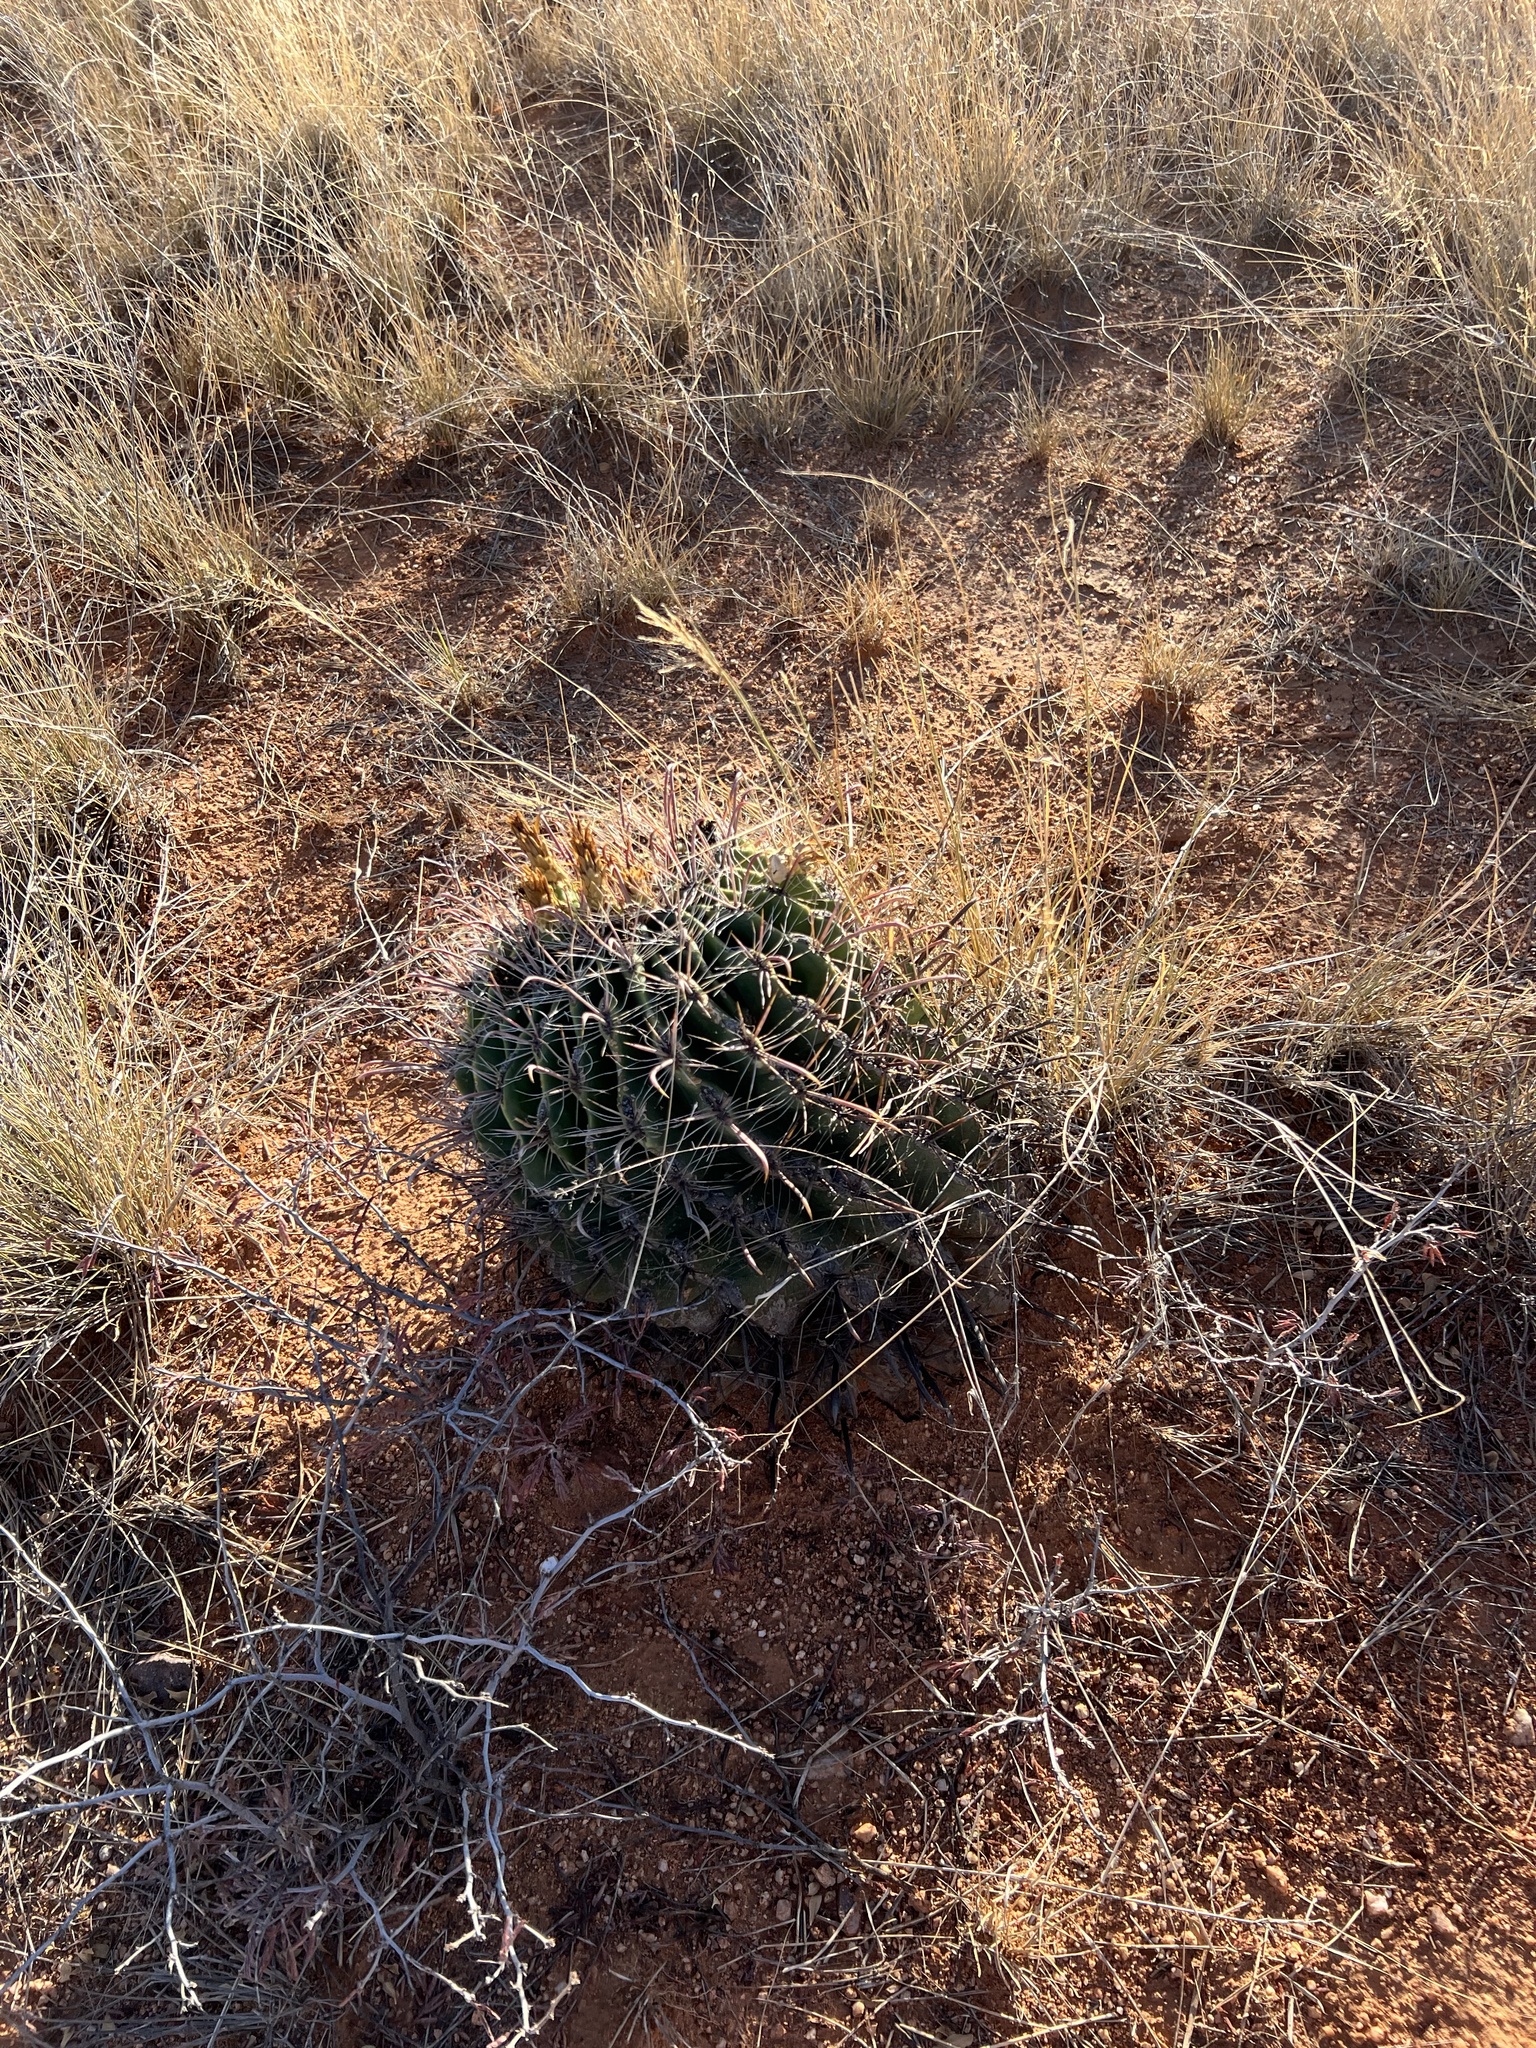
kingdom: Plantae
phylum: Tracheophyta
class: Magnoliopsida
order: Caryophyllales
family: Cactaceae
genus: Ferocactus
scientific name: Ferocactus wislizeni
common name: Candy barrel cactus
